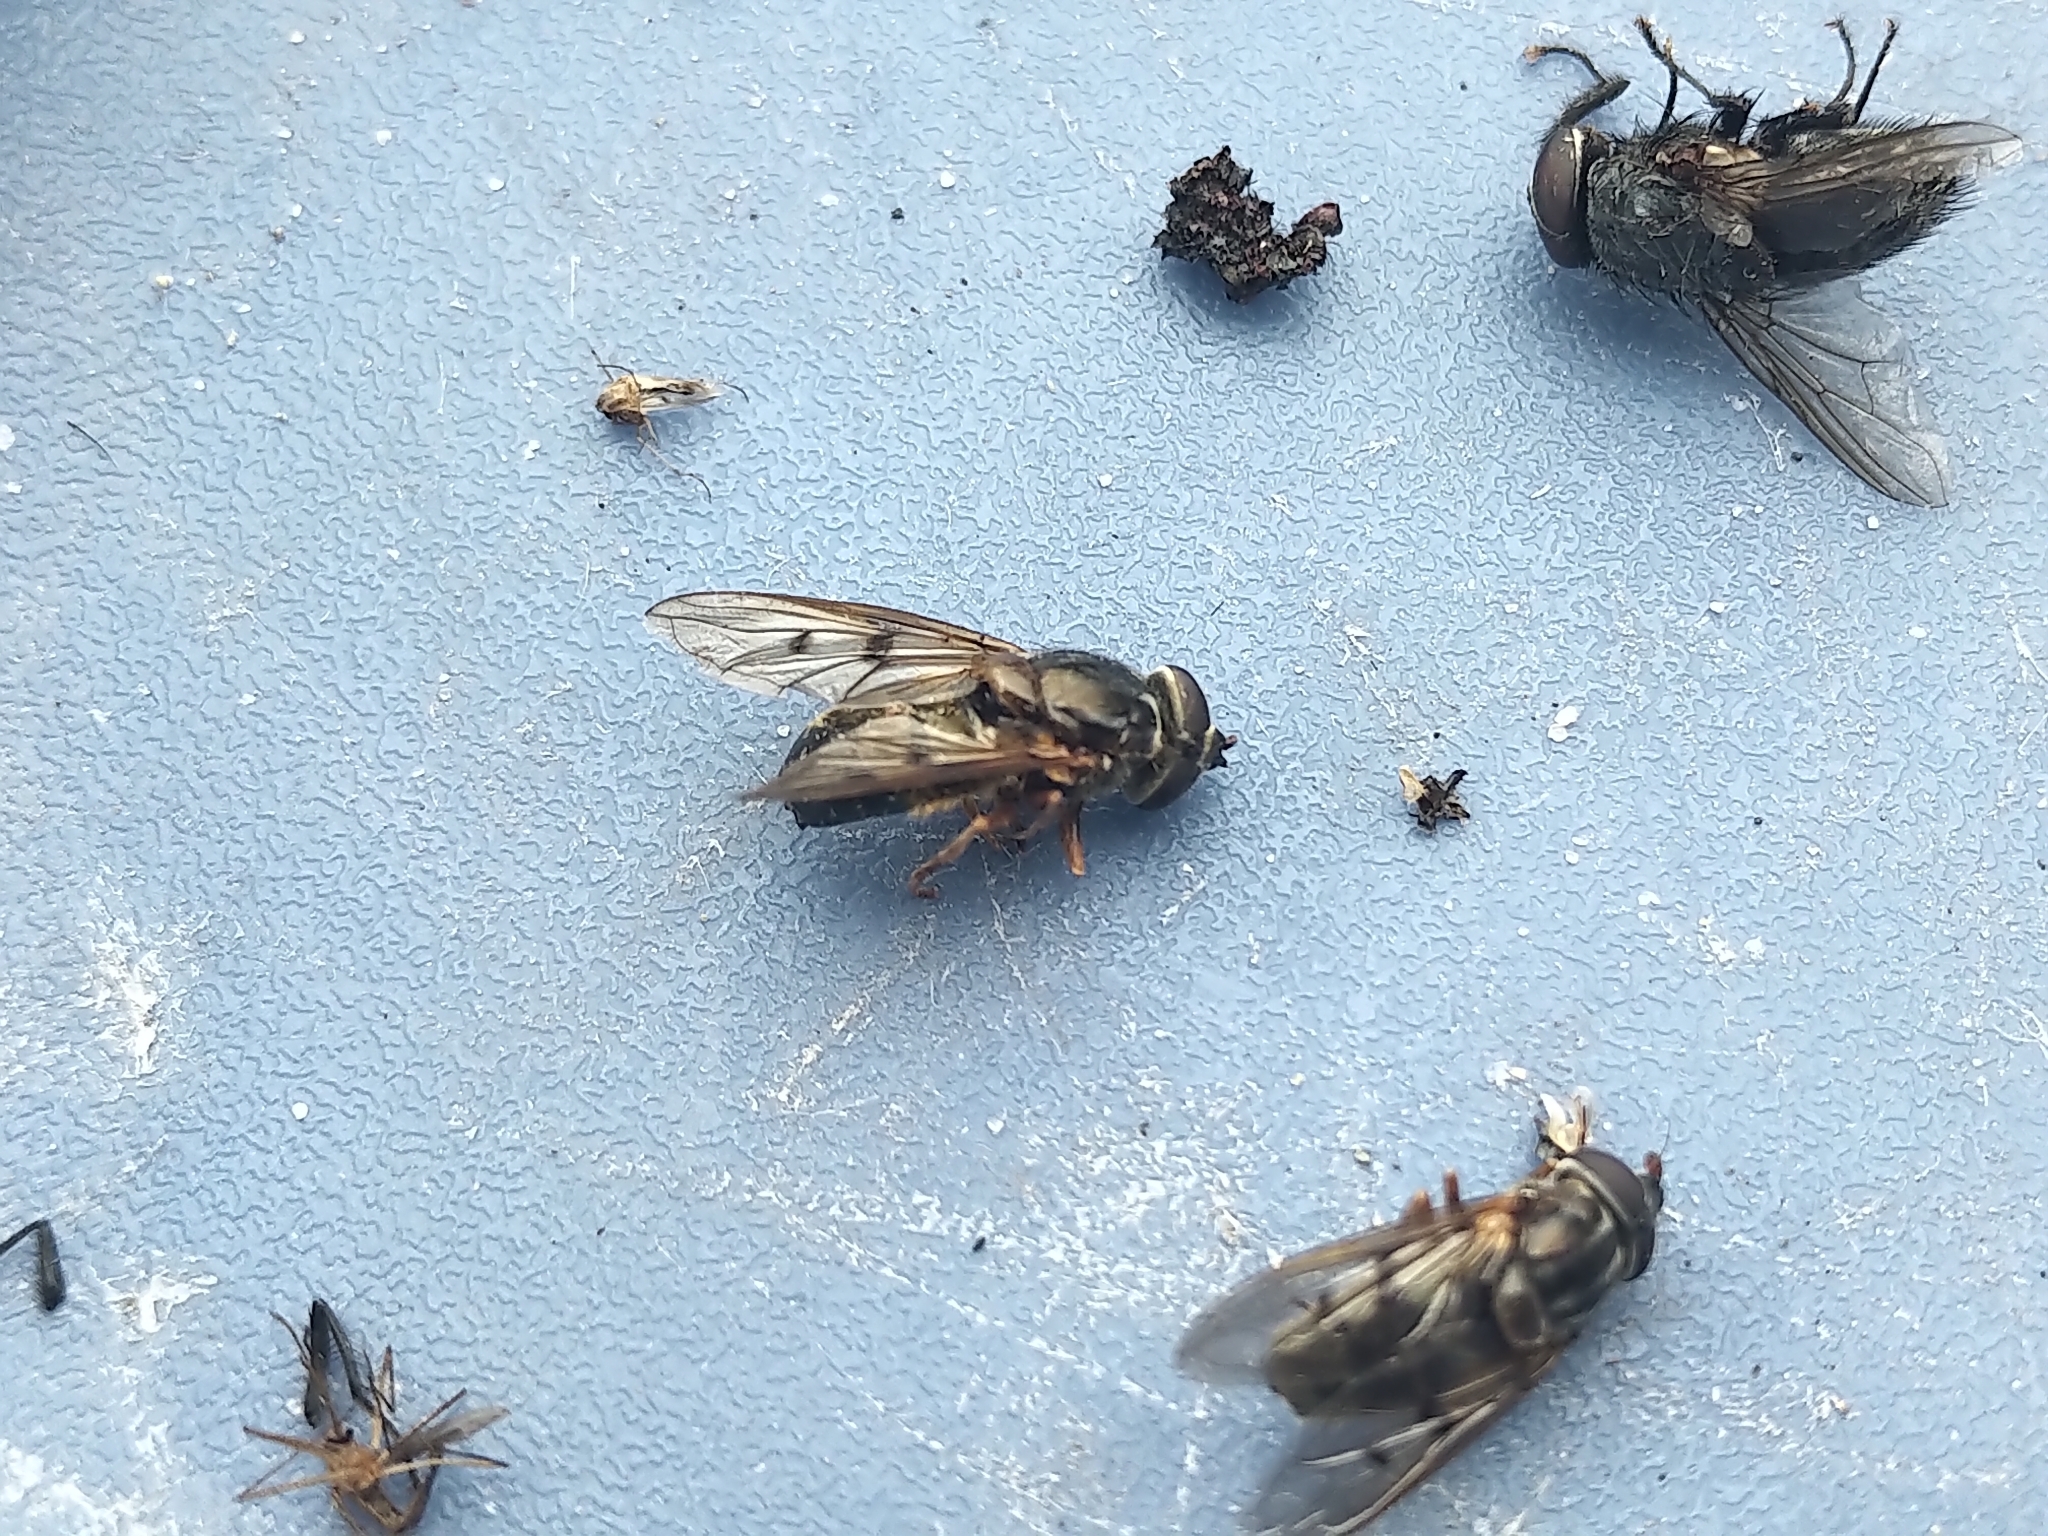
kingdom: Animalia
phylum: Arthropoda
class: Insecta
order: Diptera
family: Syrphidae
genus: Ferdinandea
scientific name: Ferdinandea buccata
